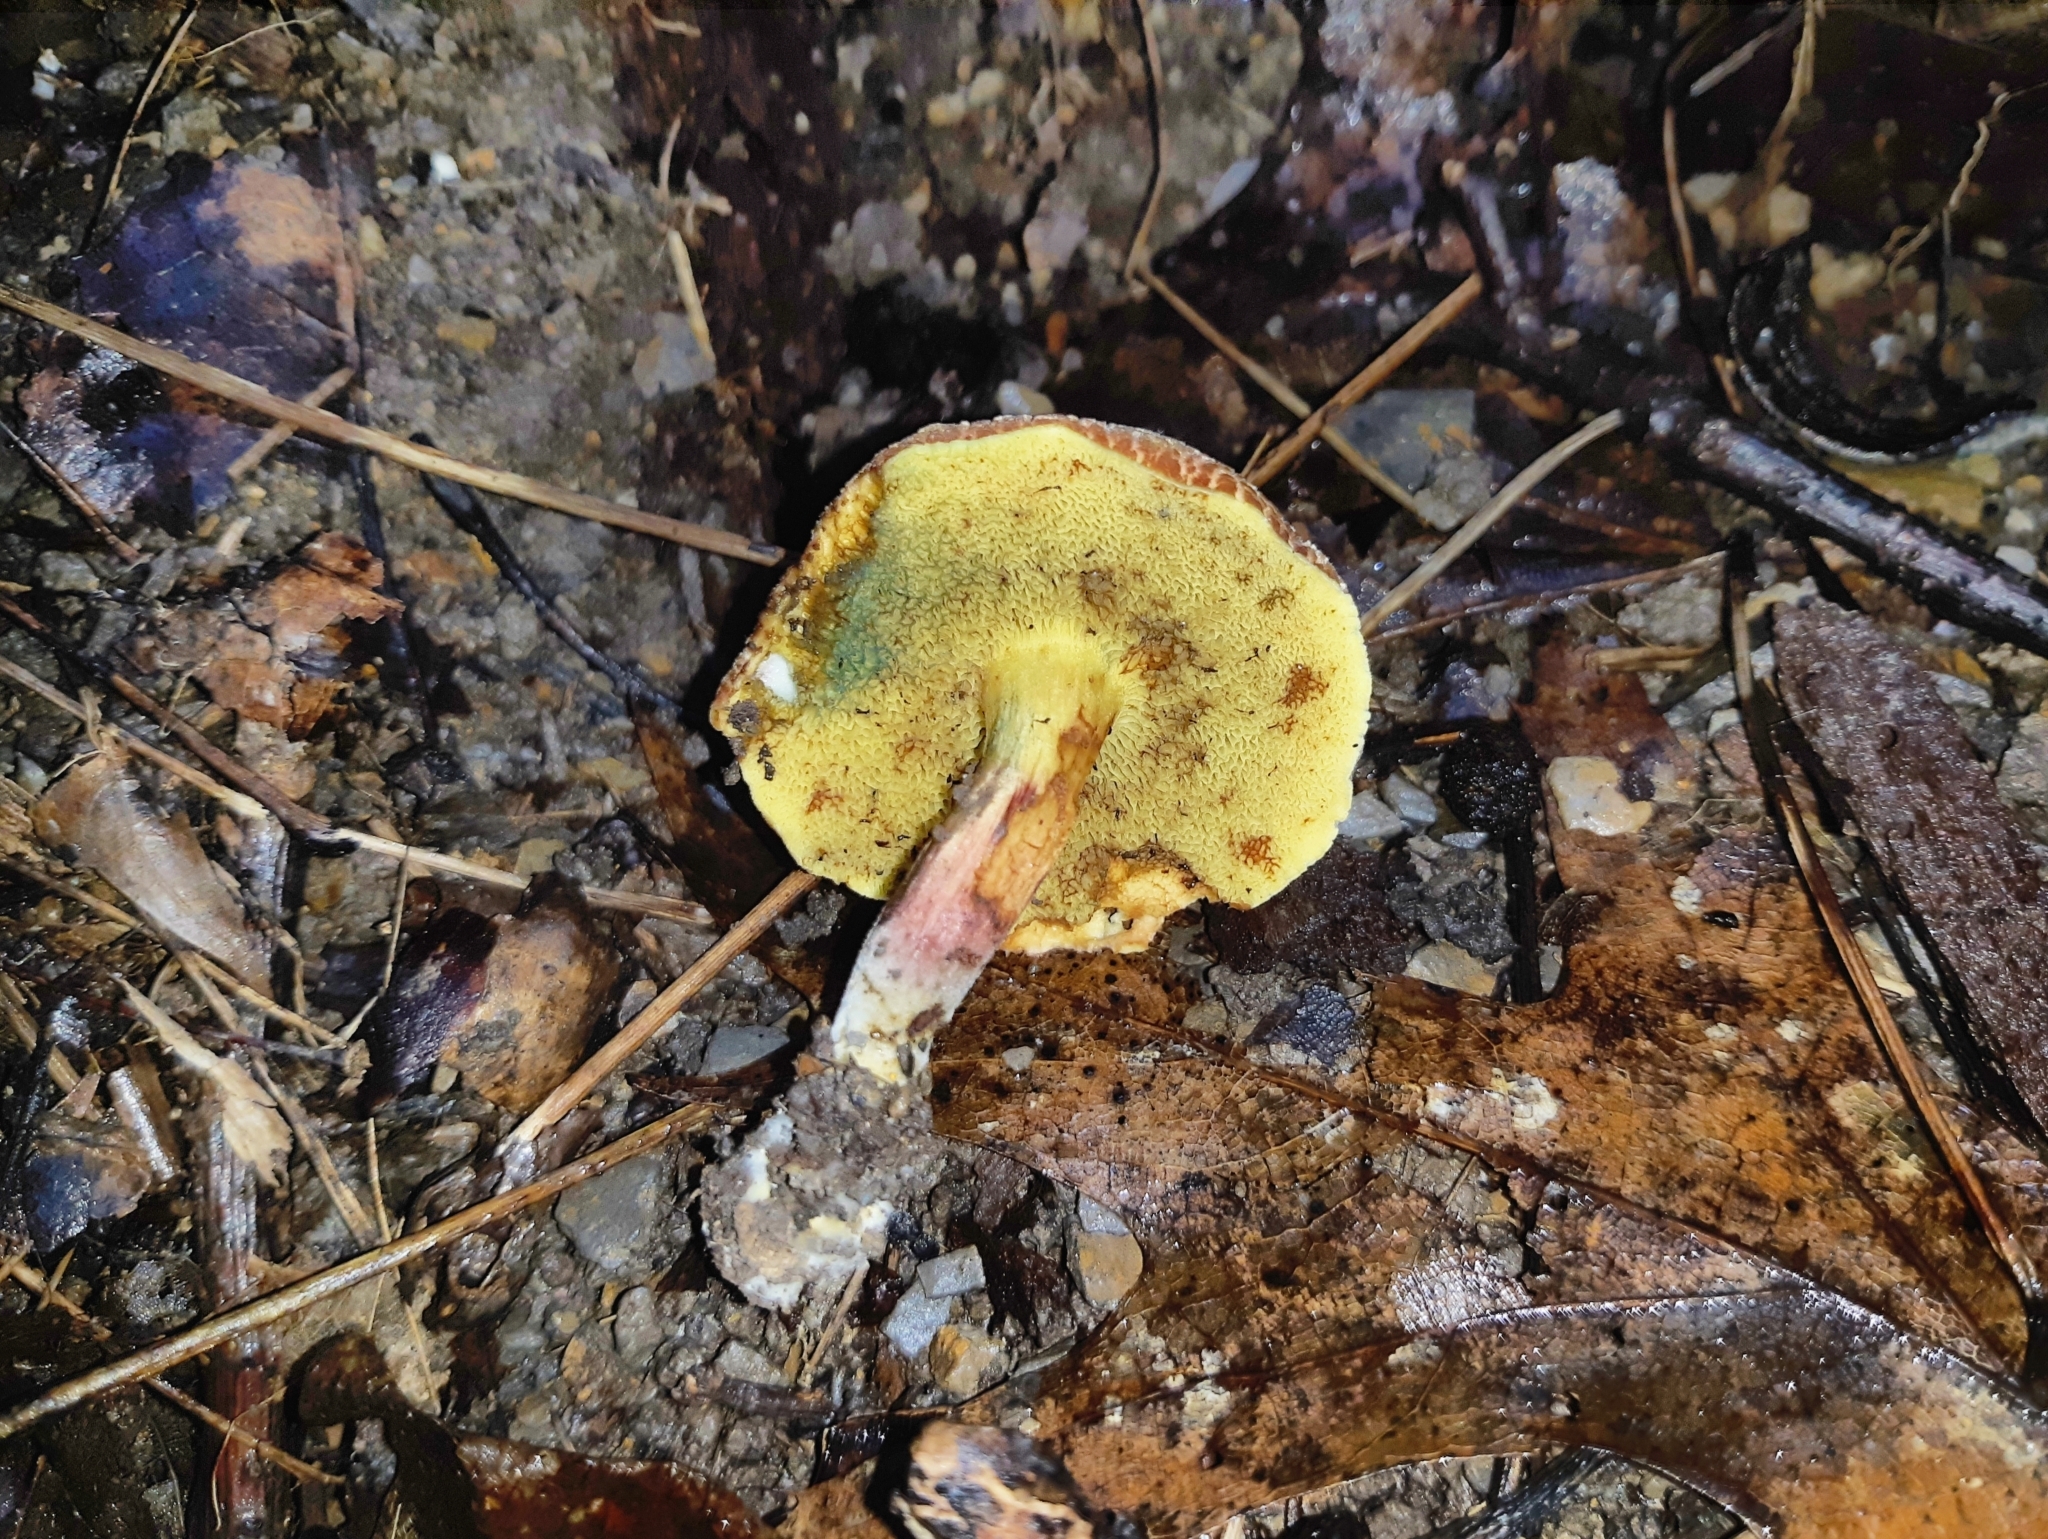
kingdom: Fungi
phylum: Basidiomycota
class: Agaricomycetes
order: Boletales
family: Boletaceae
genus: Xerocomellus
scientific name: Xerocomellus chrysenteron
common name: Red-cracking bolete
